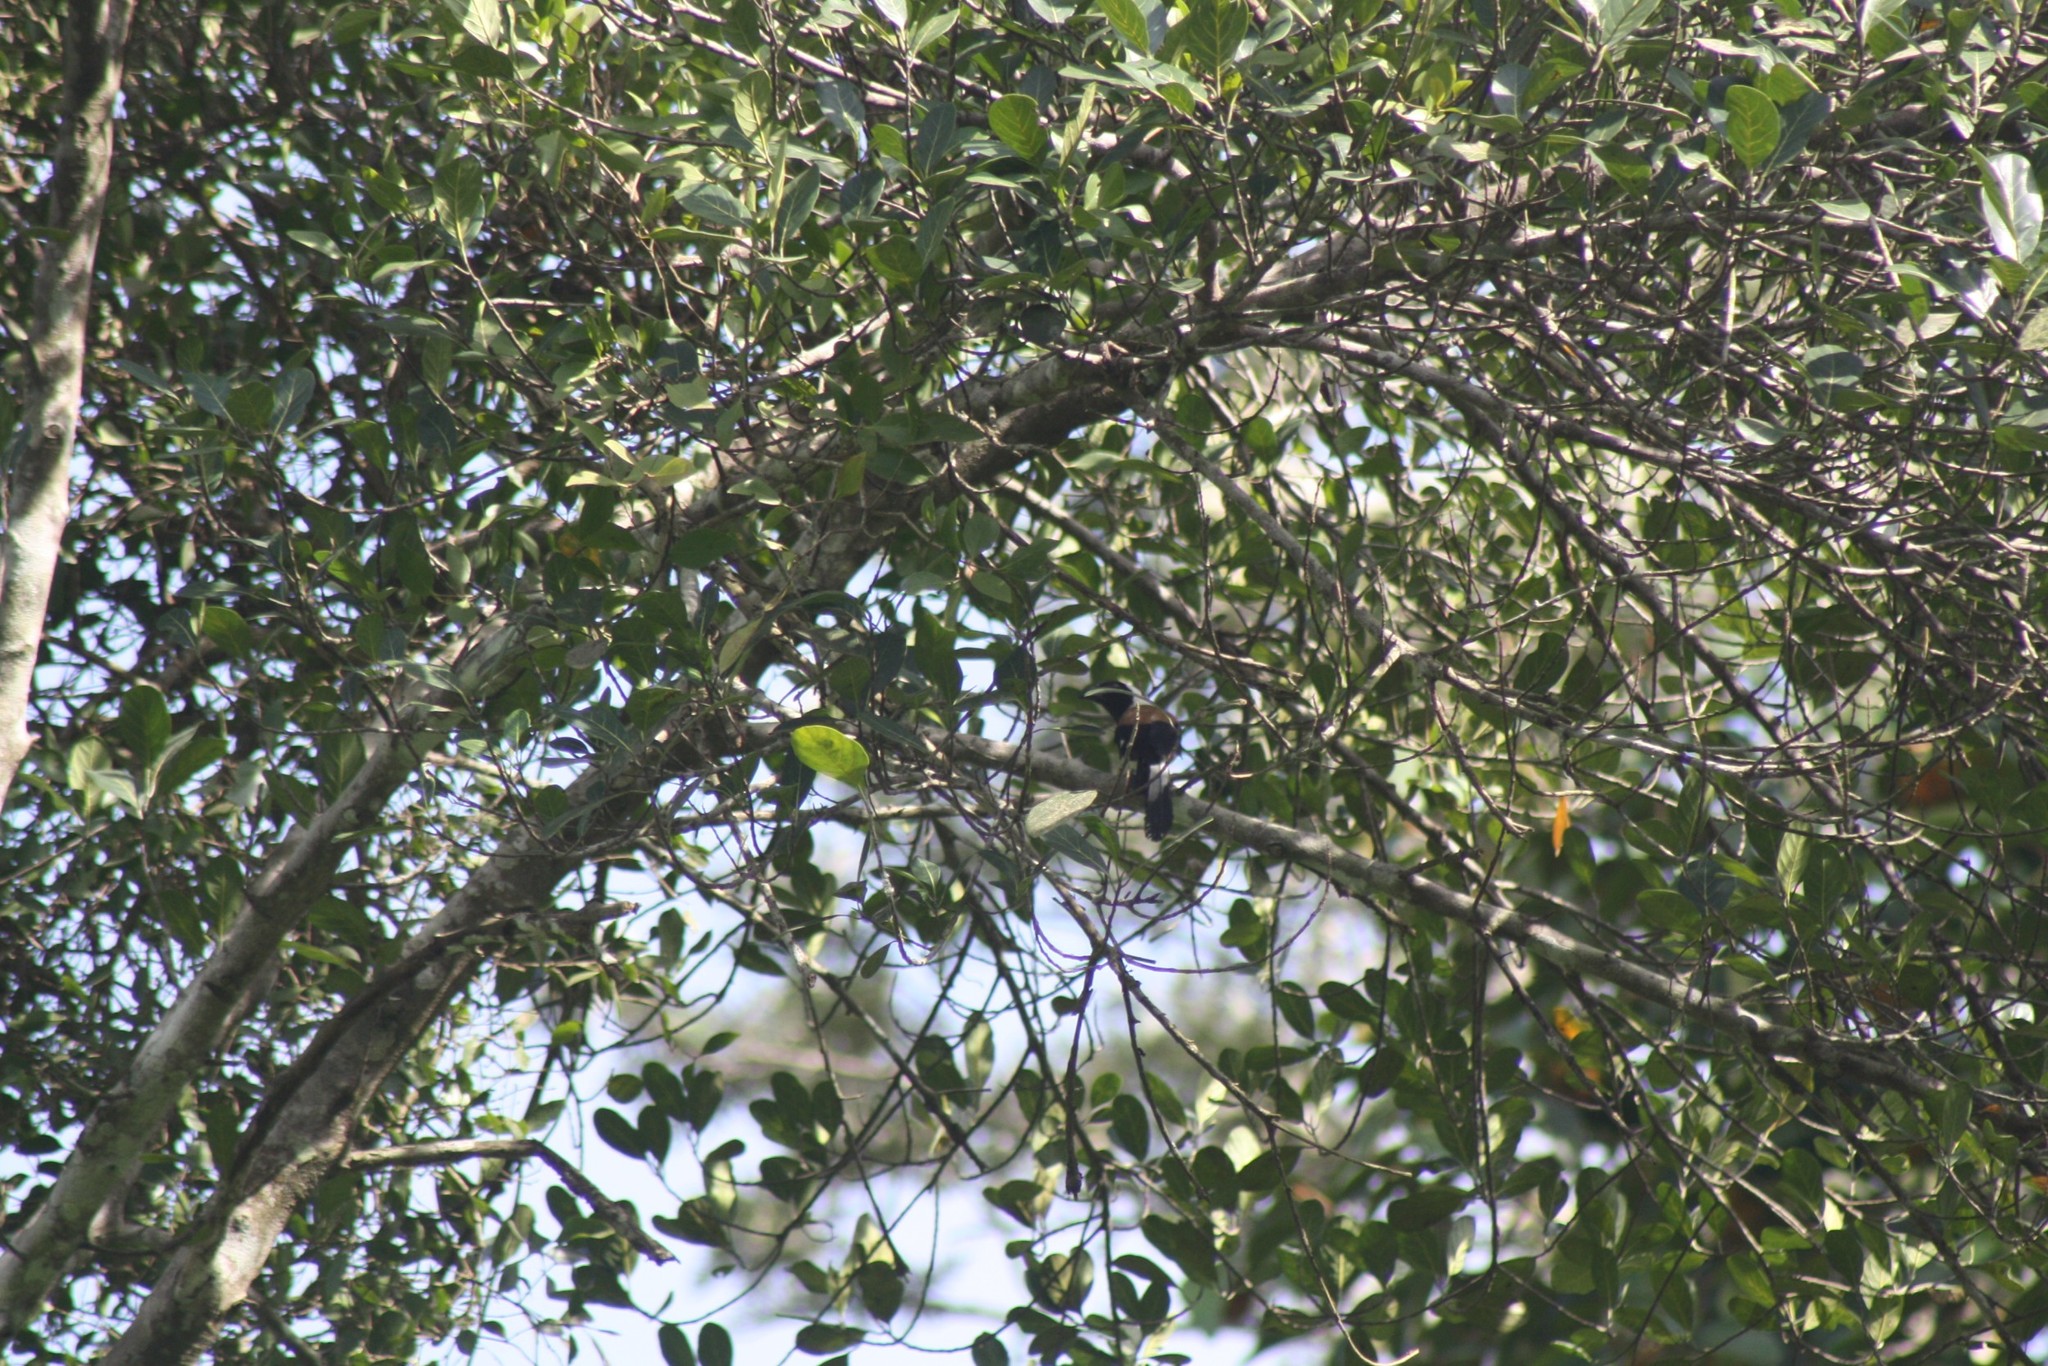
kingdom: Animalia
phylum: Chordata
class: Aves
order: Passeriformes
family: Corvidae
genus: Dendrocitta
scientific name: Dendrocitta leucogastra
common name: White-bellied treepie
